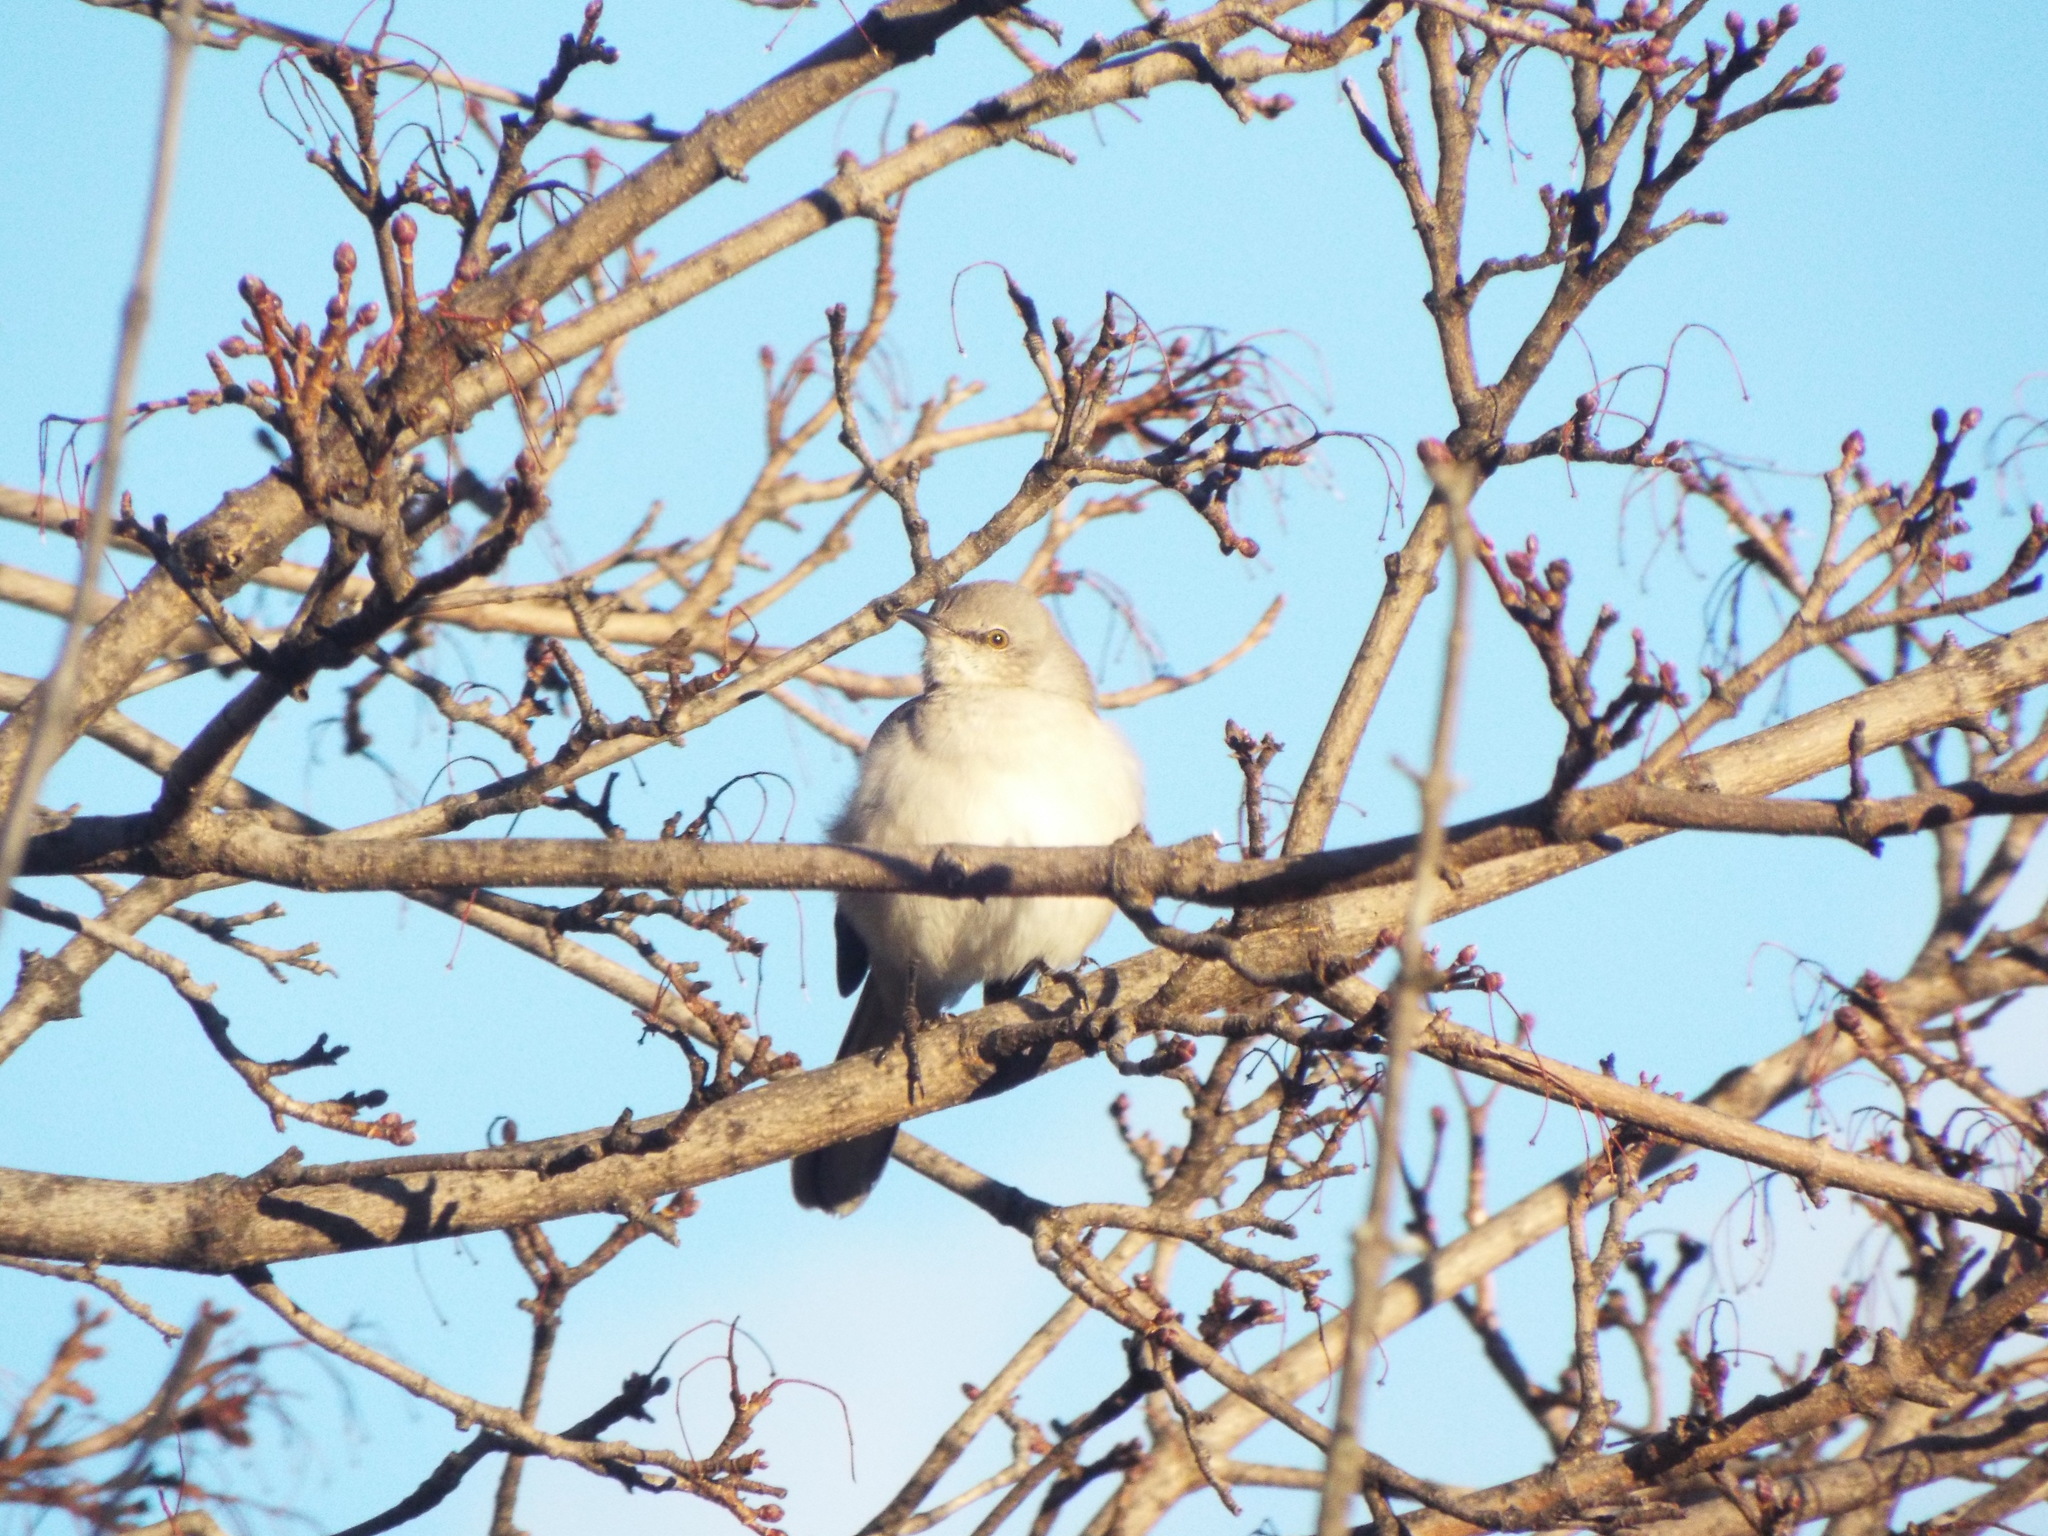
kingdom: Animalia
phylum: Chordata
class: Aves
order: Passeriformes
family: Mimidae
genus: Mimus
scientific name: Mimus polyglottos
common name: Northern mockingbird
